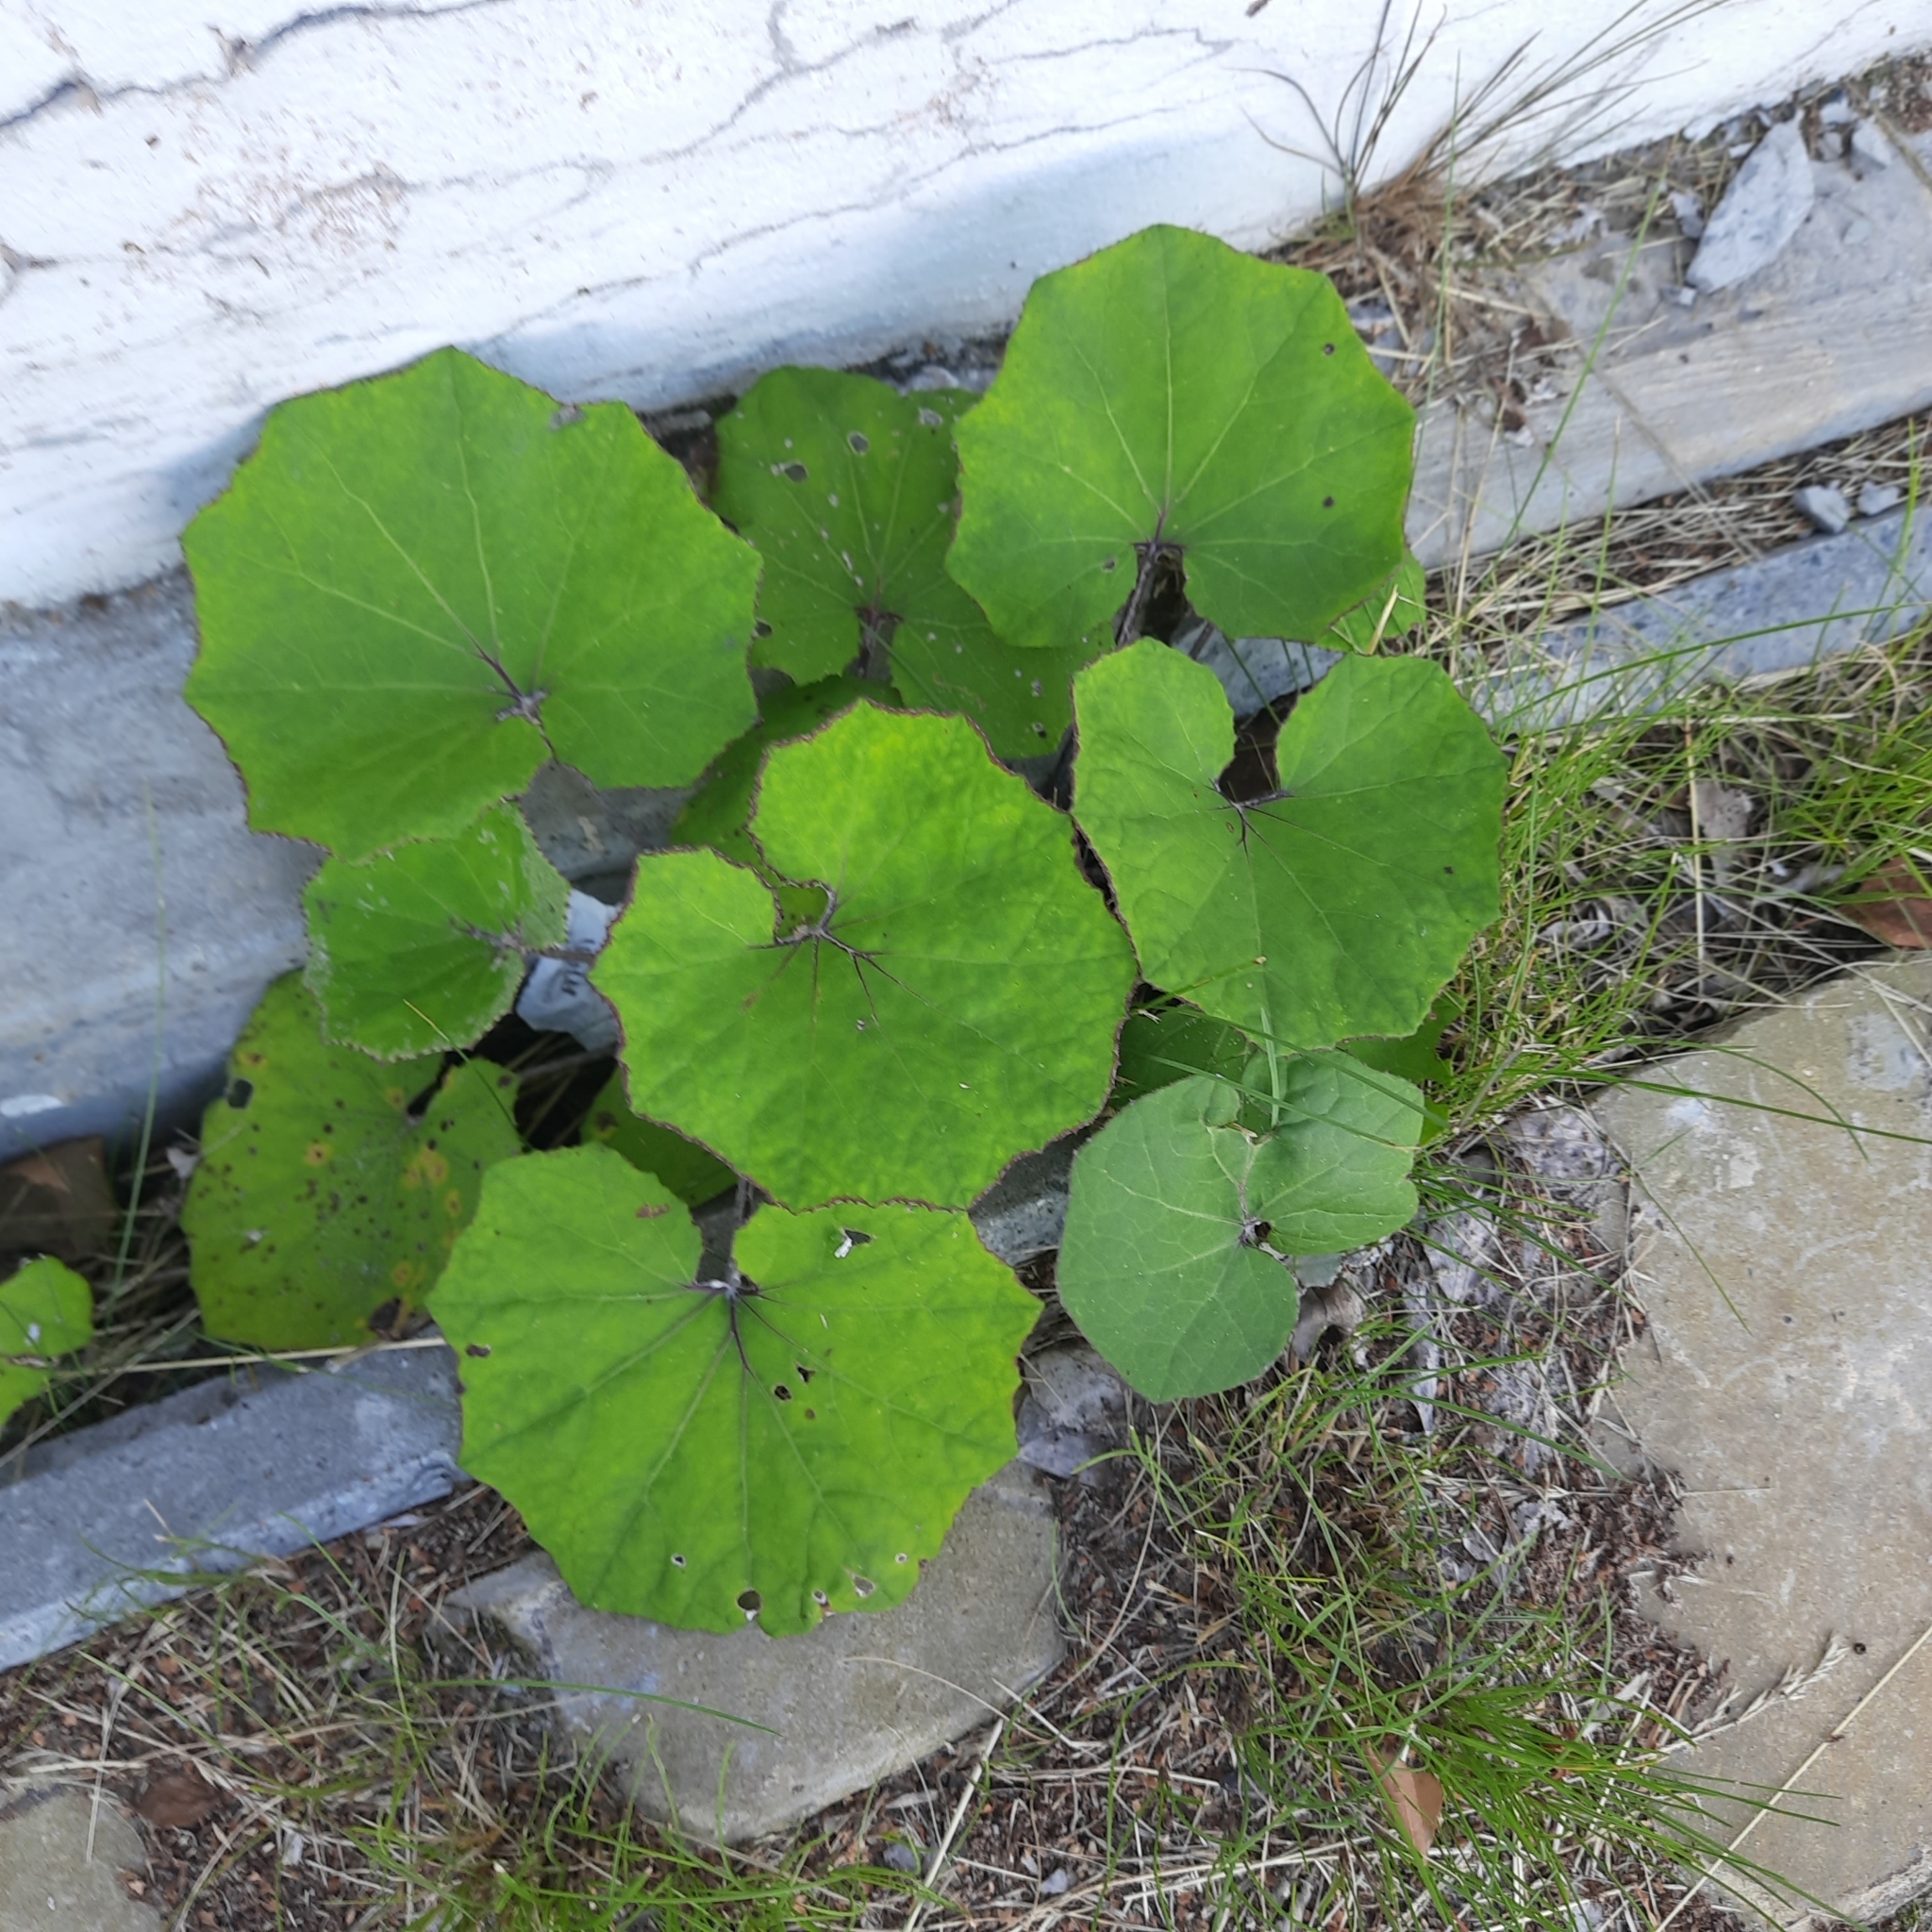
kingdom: Plantae
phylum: Tracheophyta
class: Magnoliopsida
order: Asterales
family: Asteraceae
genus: Tussilago
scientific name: Tussilago farfara
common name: Coltsfoot
